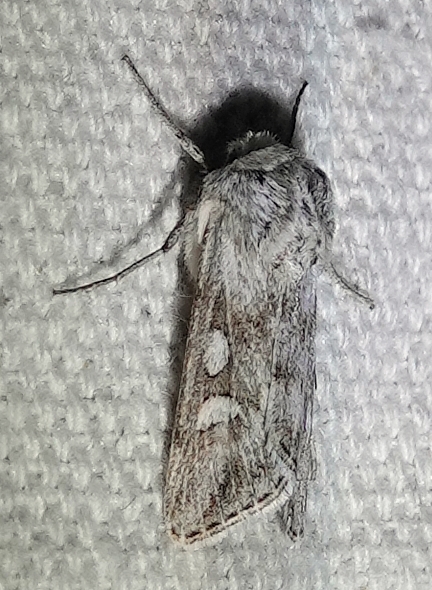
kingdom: Animalia
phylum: Arthropoda
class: Insecta
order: Lepidoptera
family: Noctuidae
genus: Protogygia
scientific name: Protogygia pryorensis
